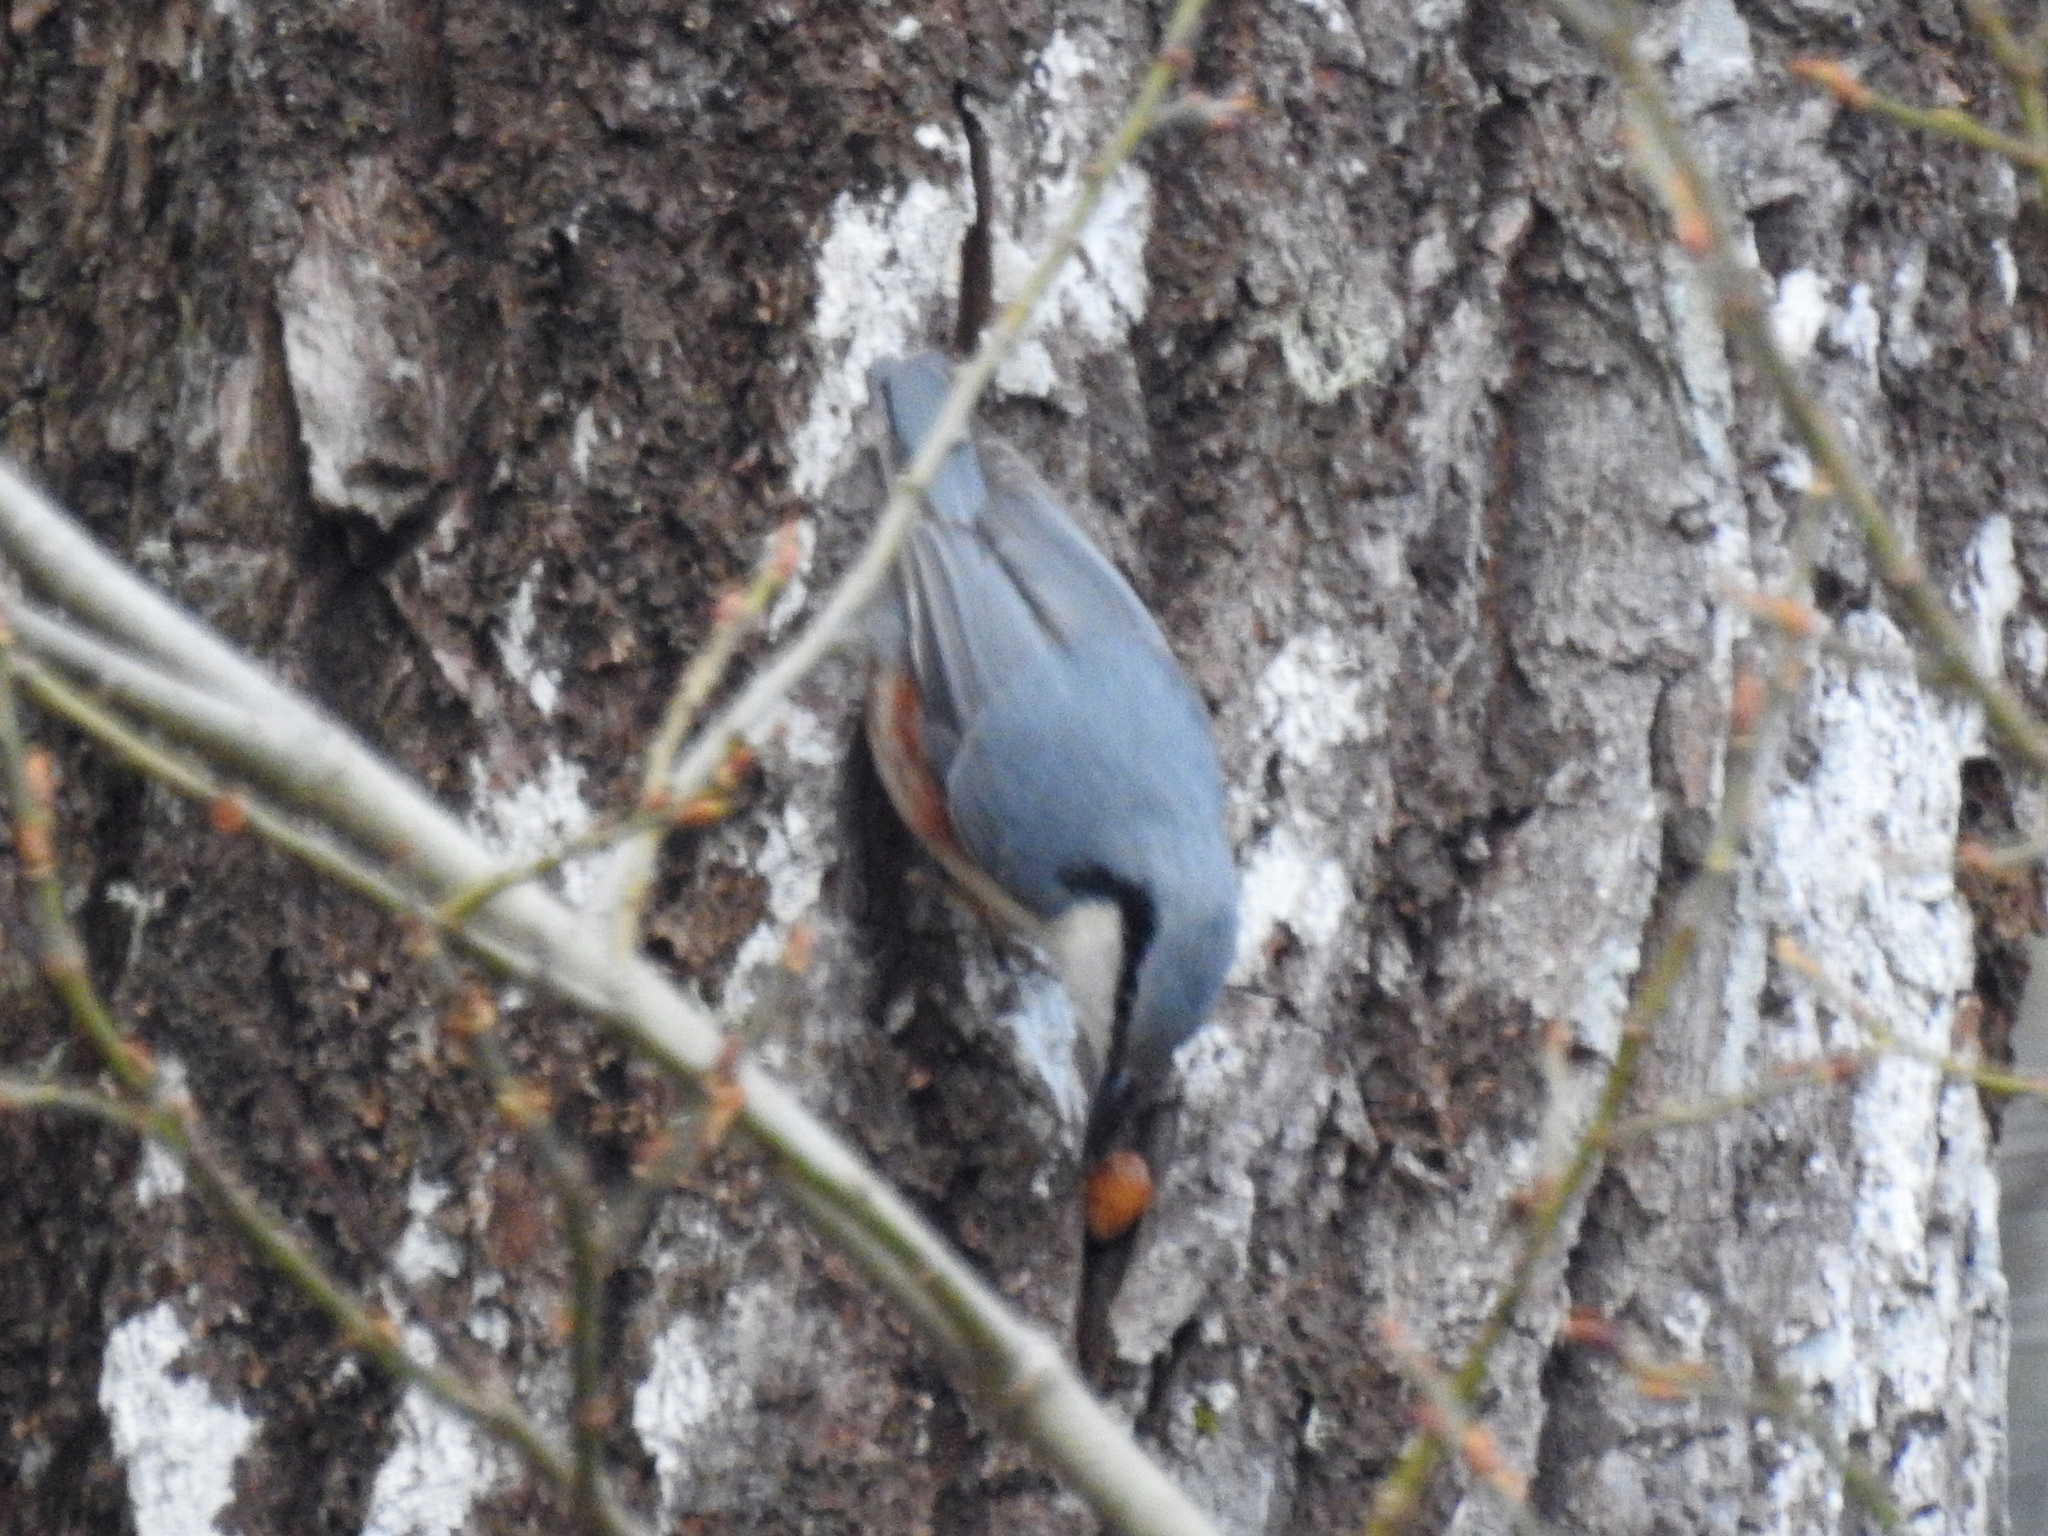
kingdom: Animalia
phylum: Chordata
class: Aves
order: Passeriformes
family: Sittidae
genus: Sitta
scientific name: Sitta europaea
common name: Eurasian nuthatch
